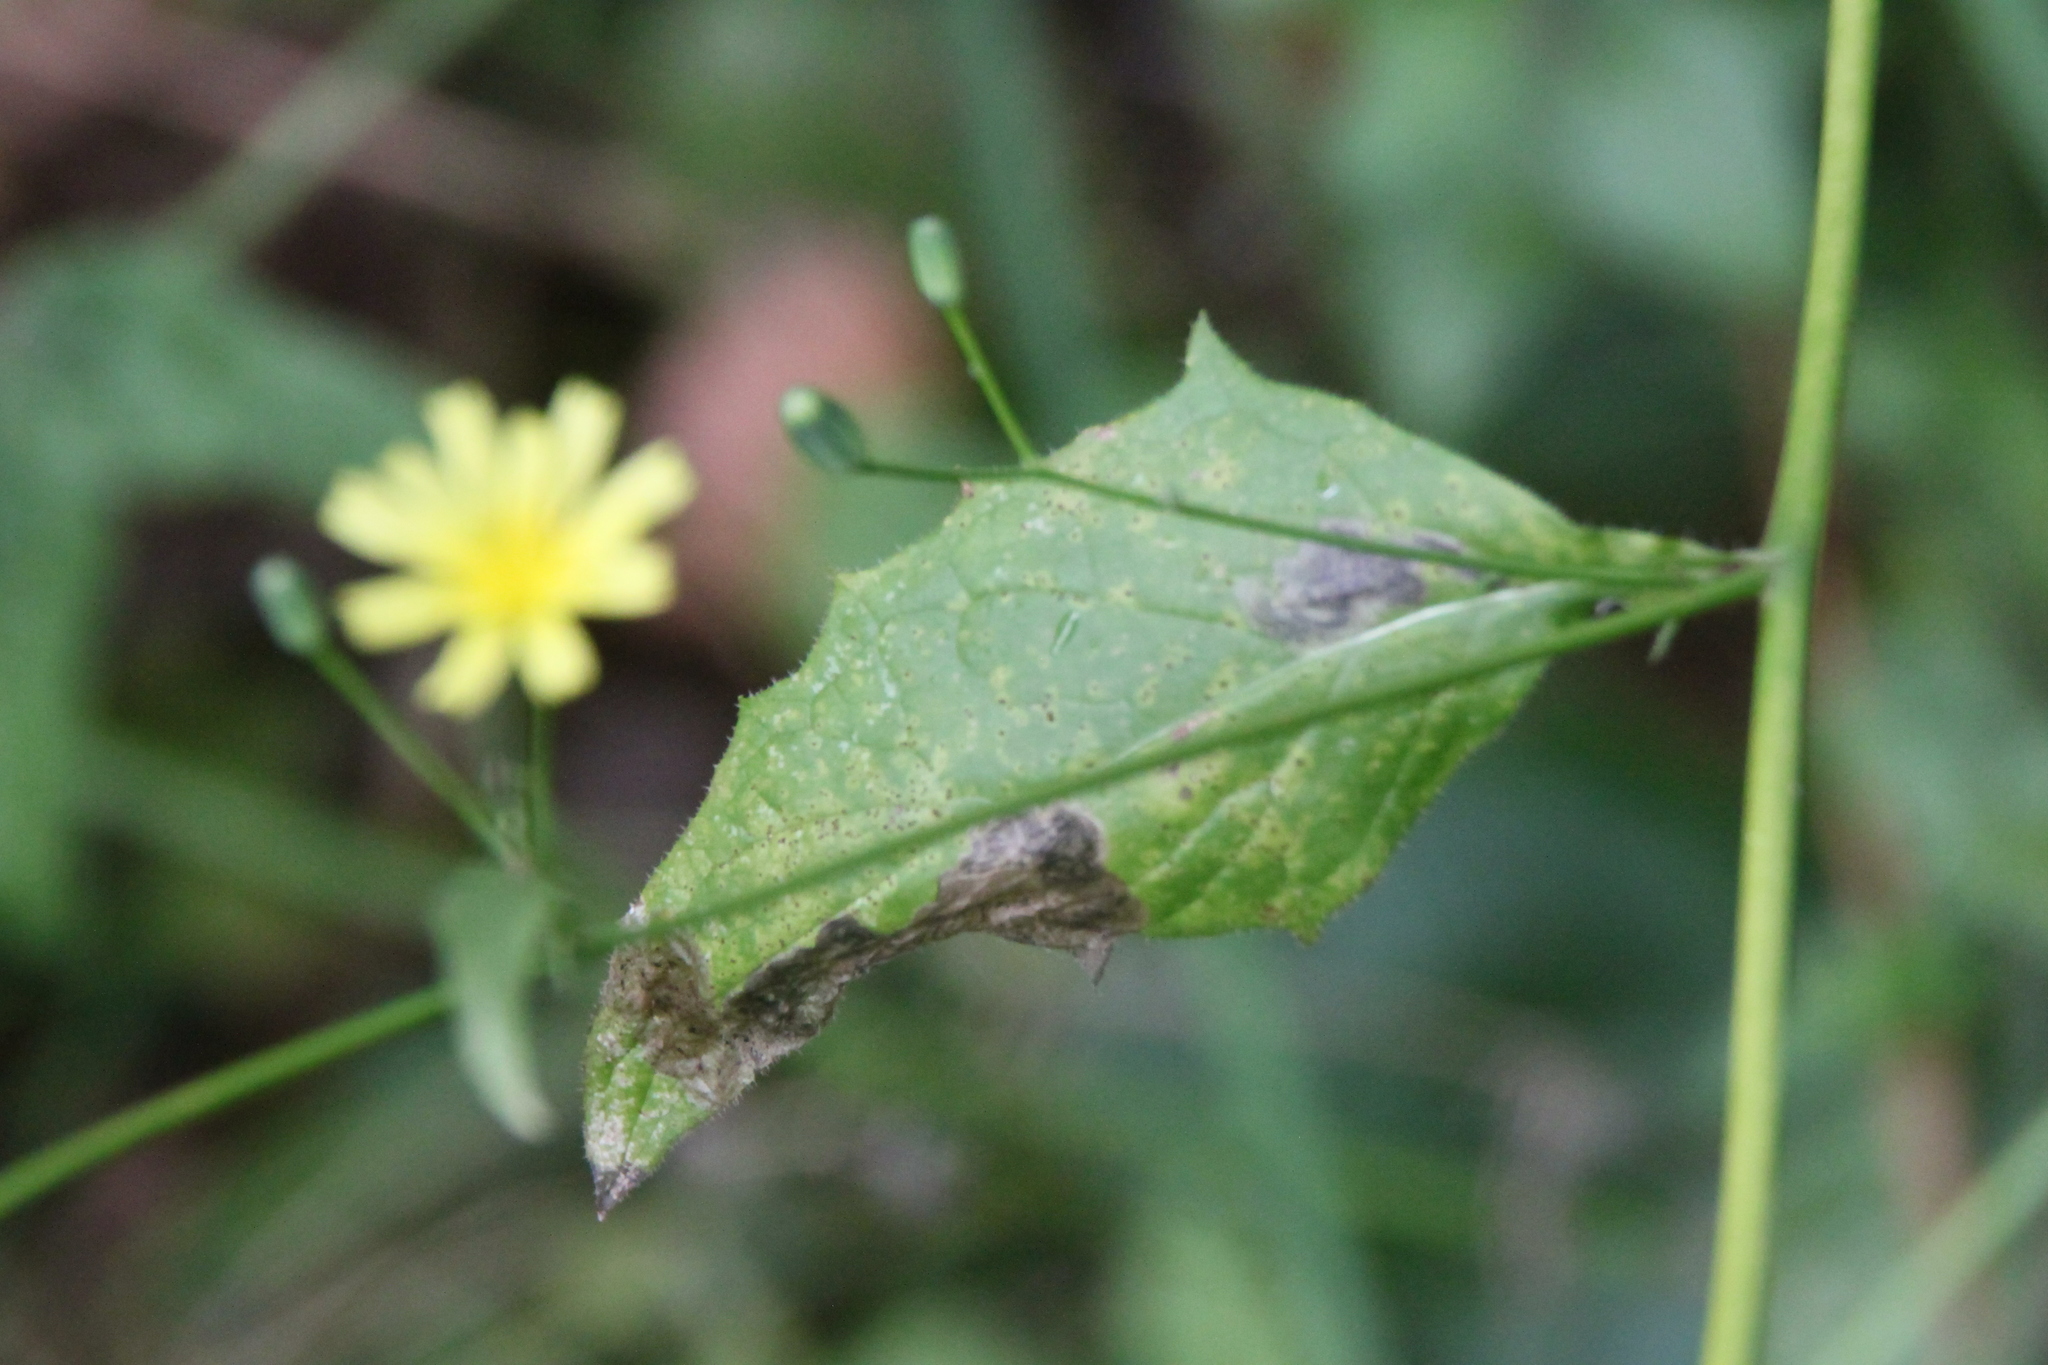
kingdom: Plantae
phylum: Tracheophyta
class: Magnoliopsida
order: Asterales
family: Asteraceae
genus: Lapsana
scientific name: Lapsana communis
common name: Nipplewort
